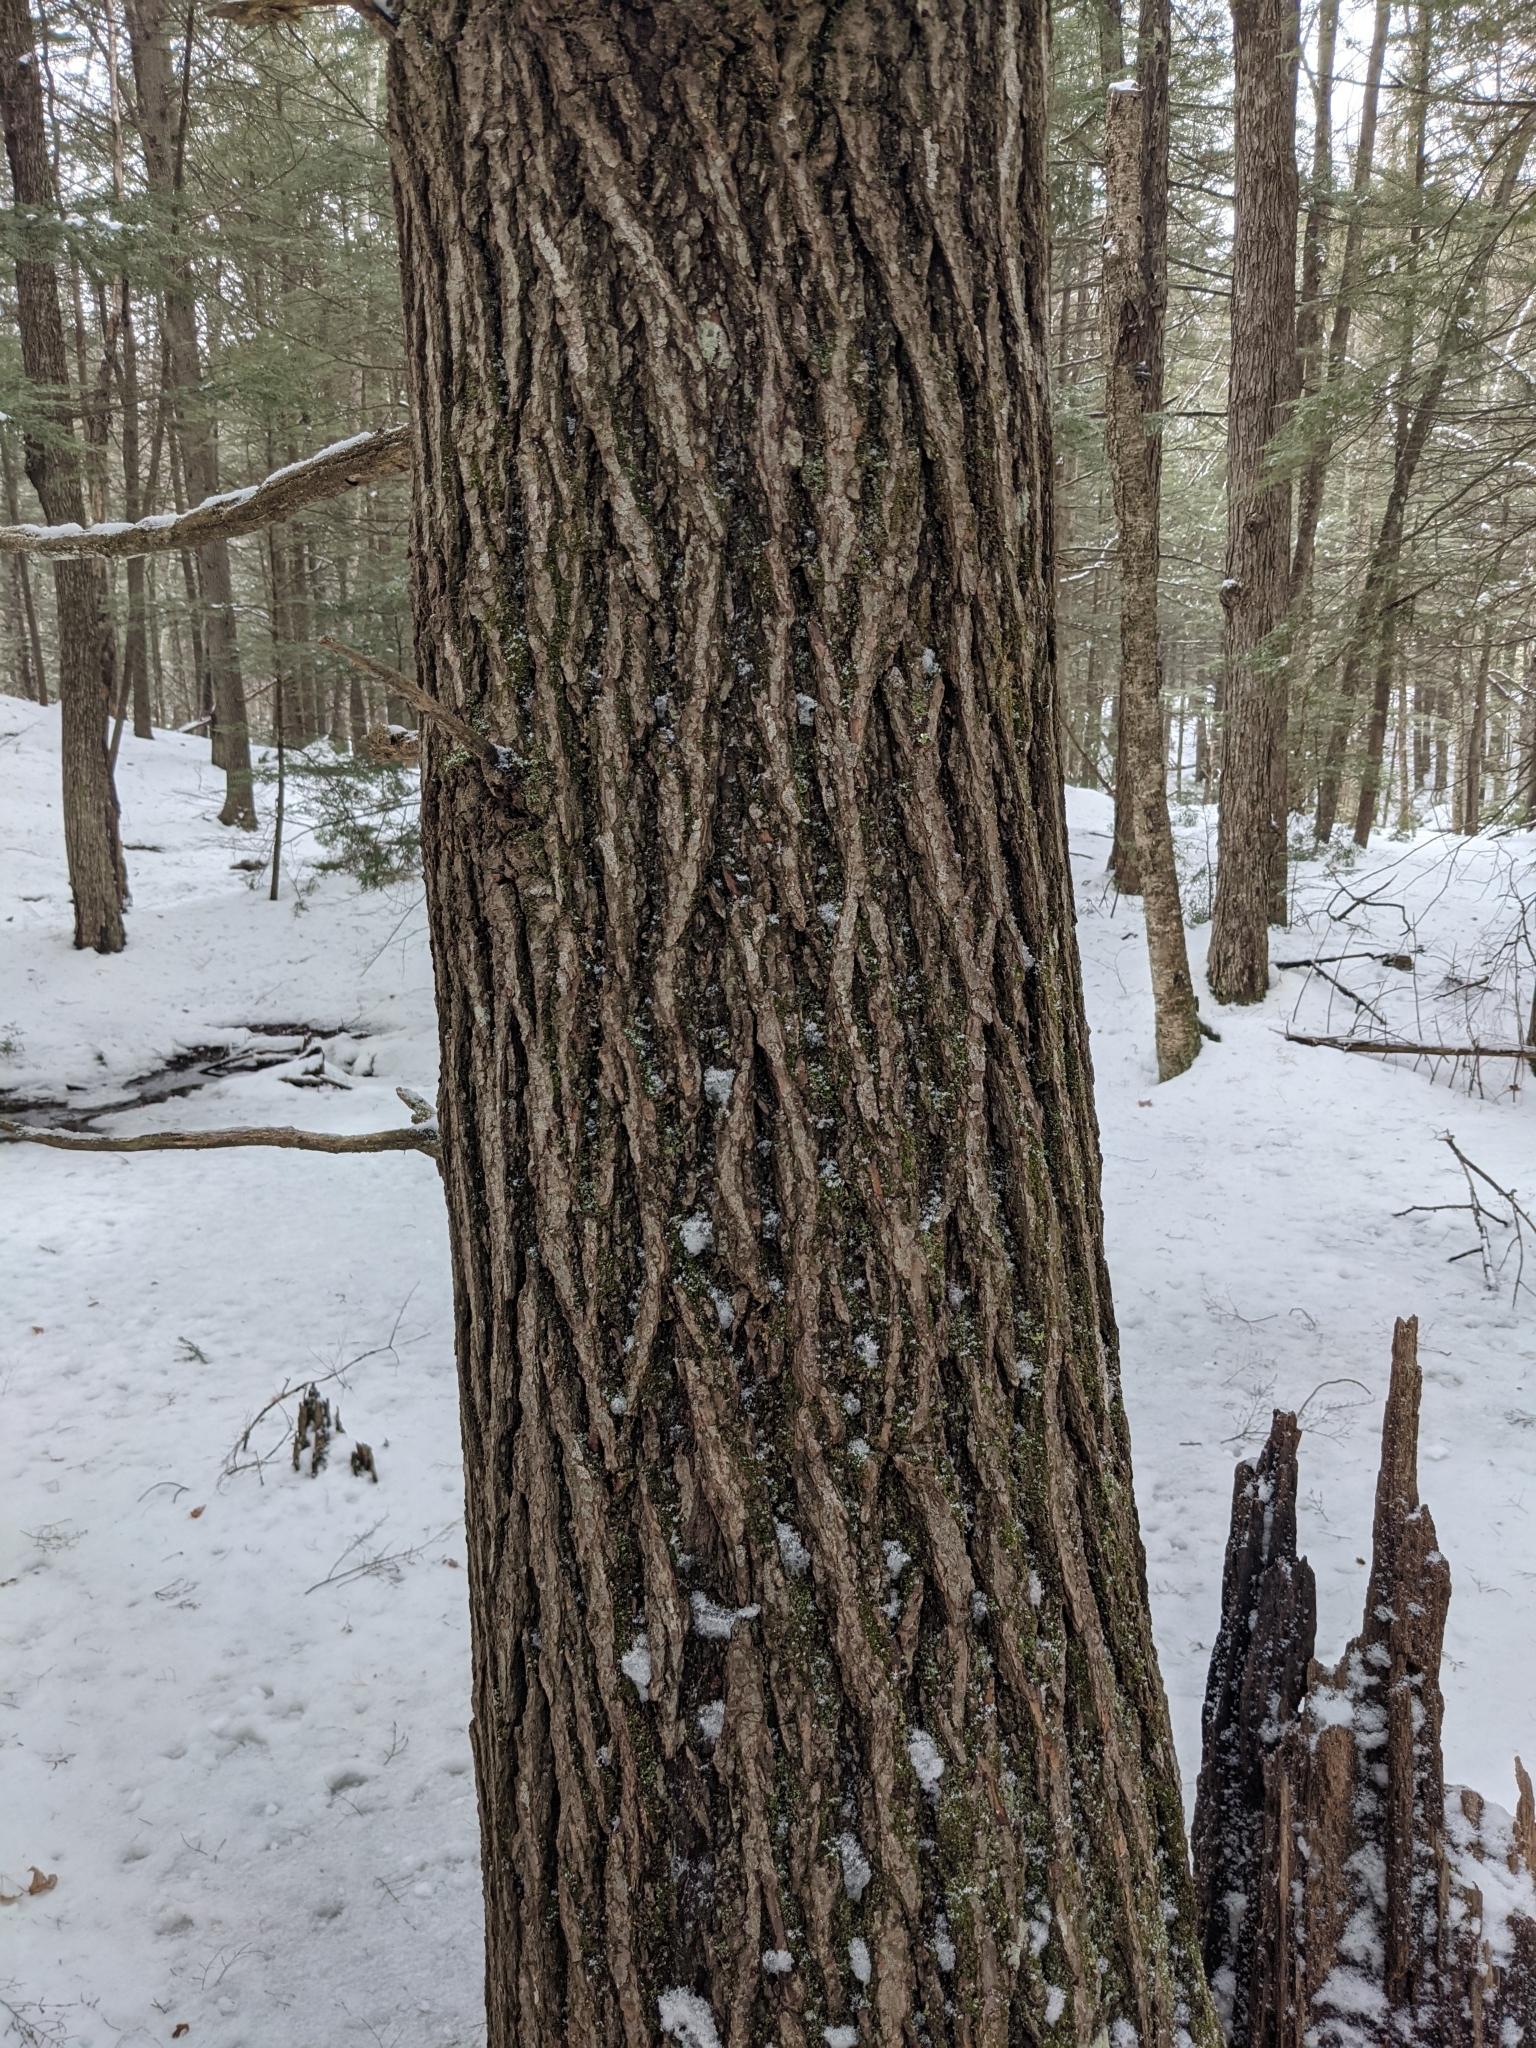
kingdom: Plantae
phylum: Tracheophyta
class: Pinopsida
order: Pinales
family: Pinaceae
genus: Tsuga
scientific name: Tsuga canadensis
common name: Eastern hemlock
